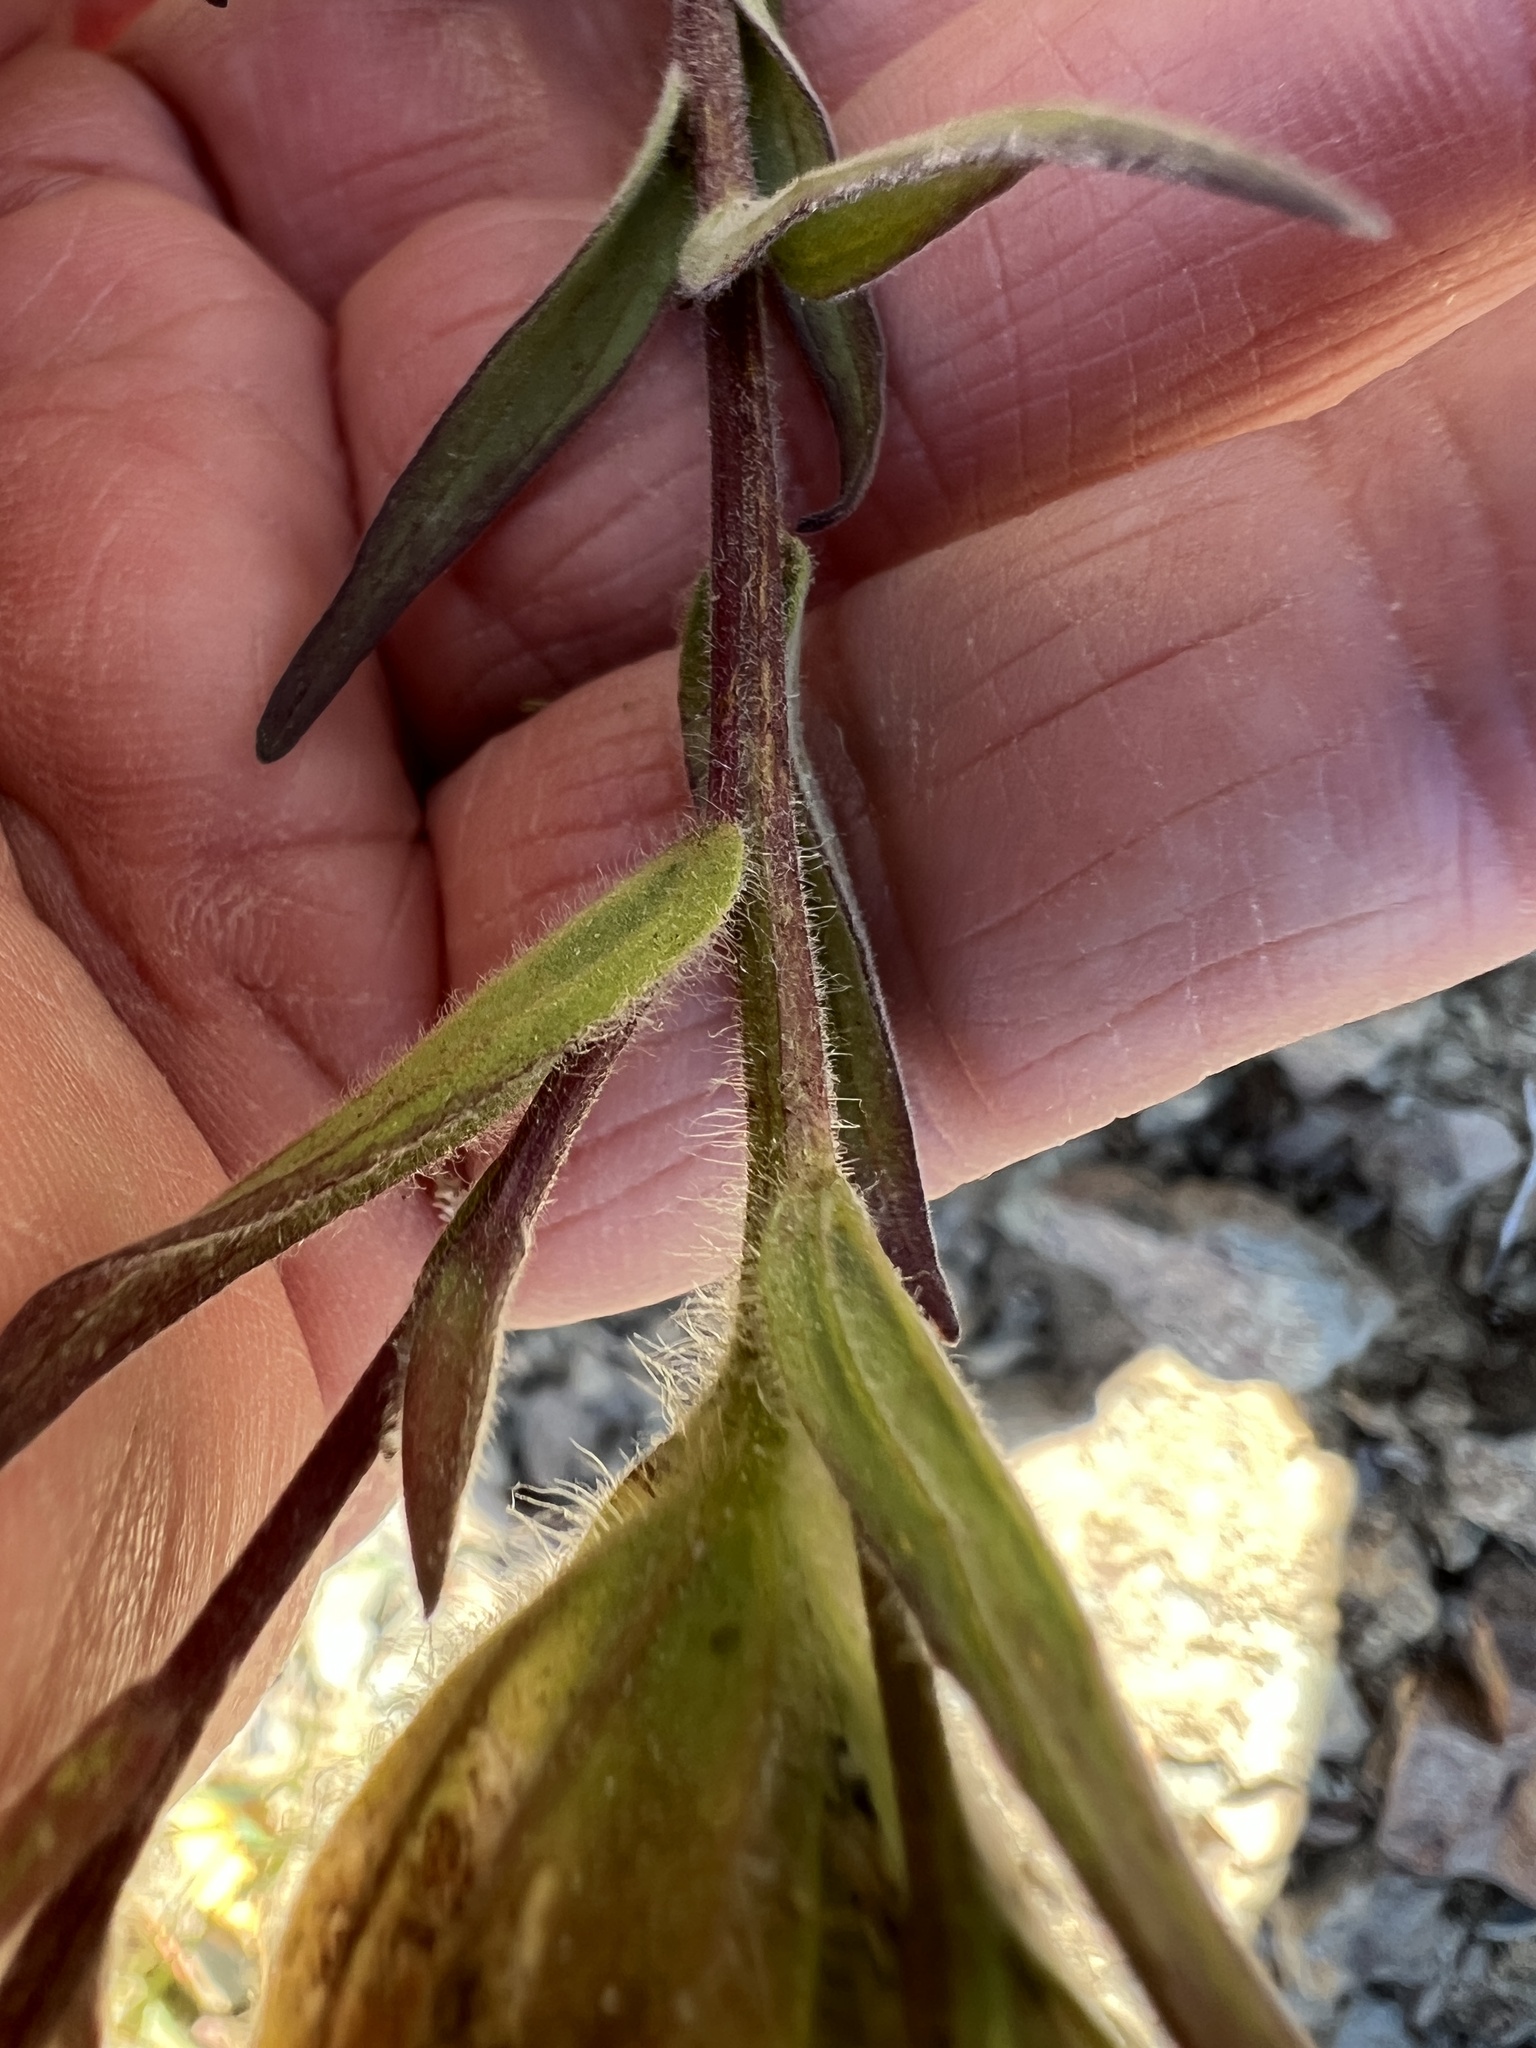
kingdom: Plantae
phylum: Tracheophyta
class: Magnoliopsida
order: Lamiales
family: Orobanchaceae
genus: Castilleja
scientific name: Castilleja elmeri
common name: Elmer's paintbrush
